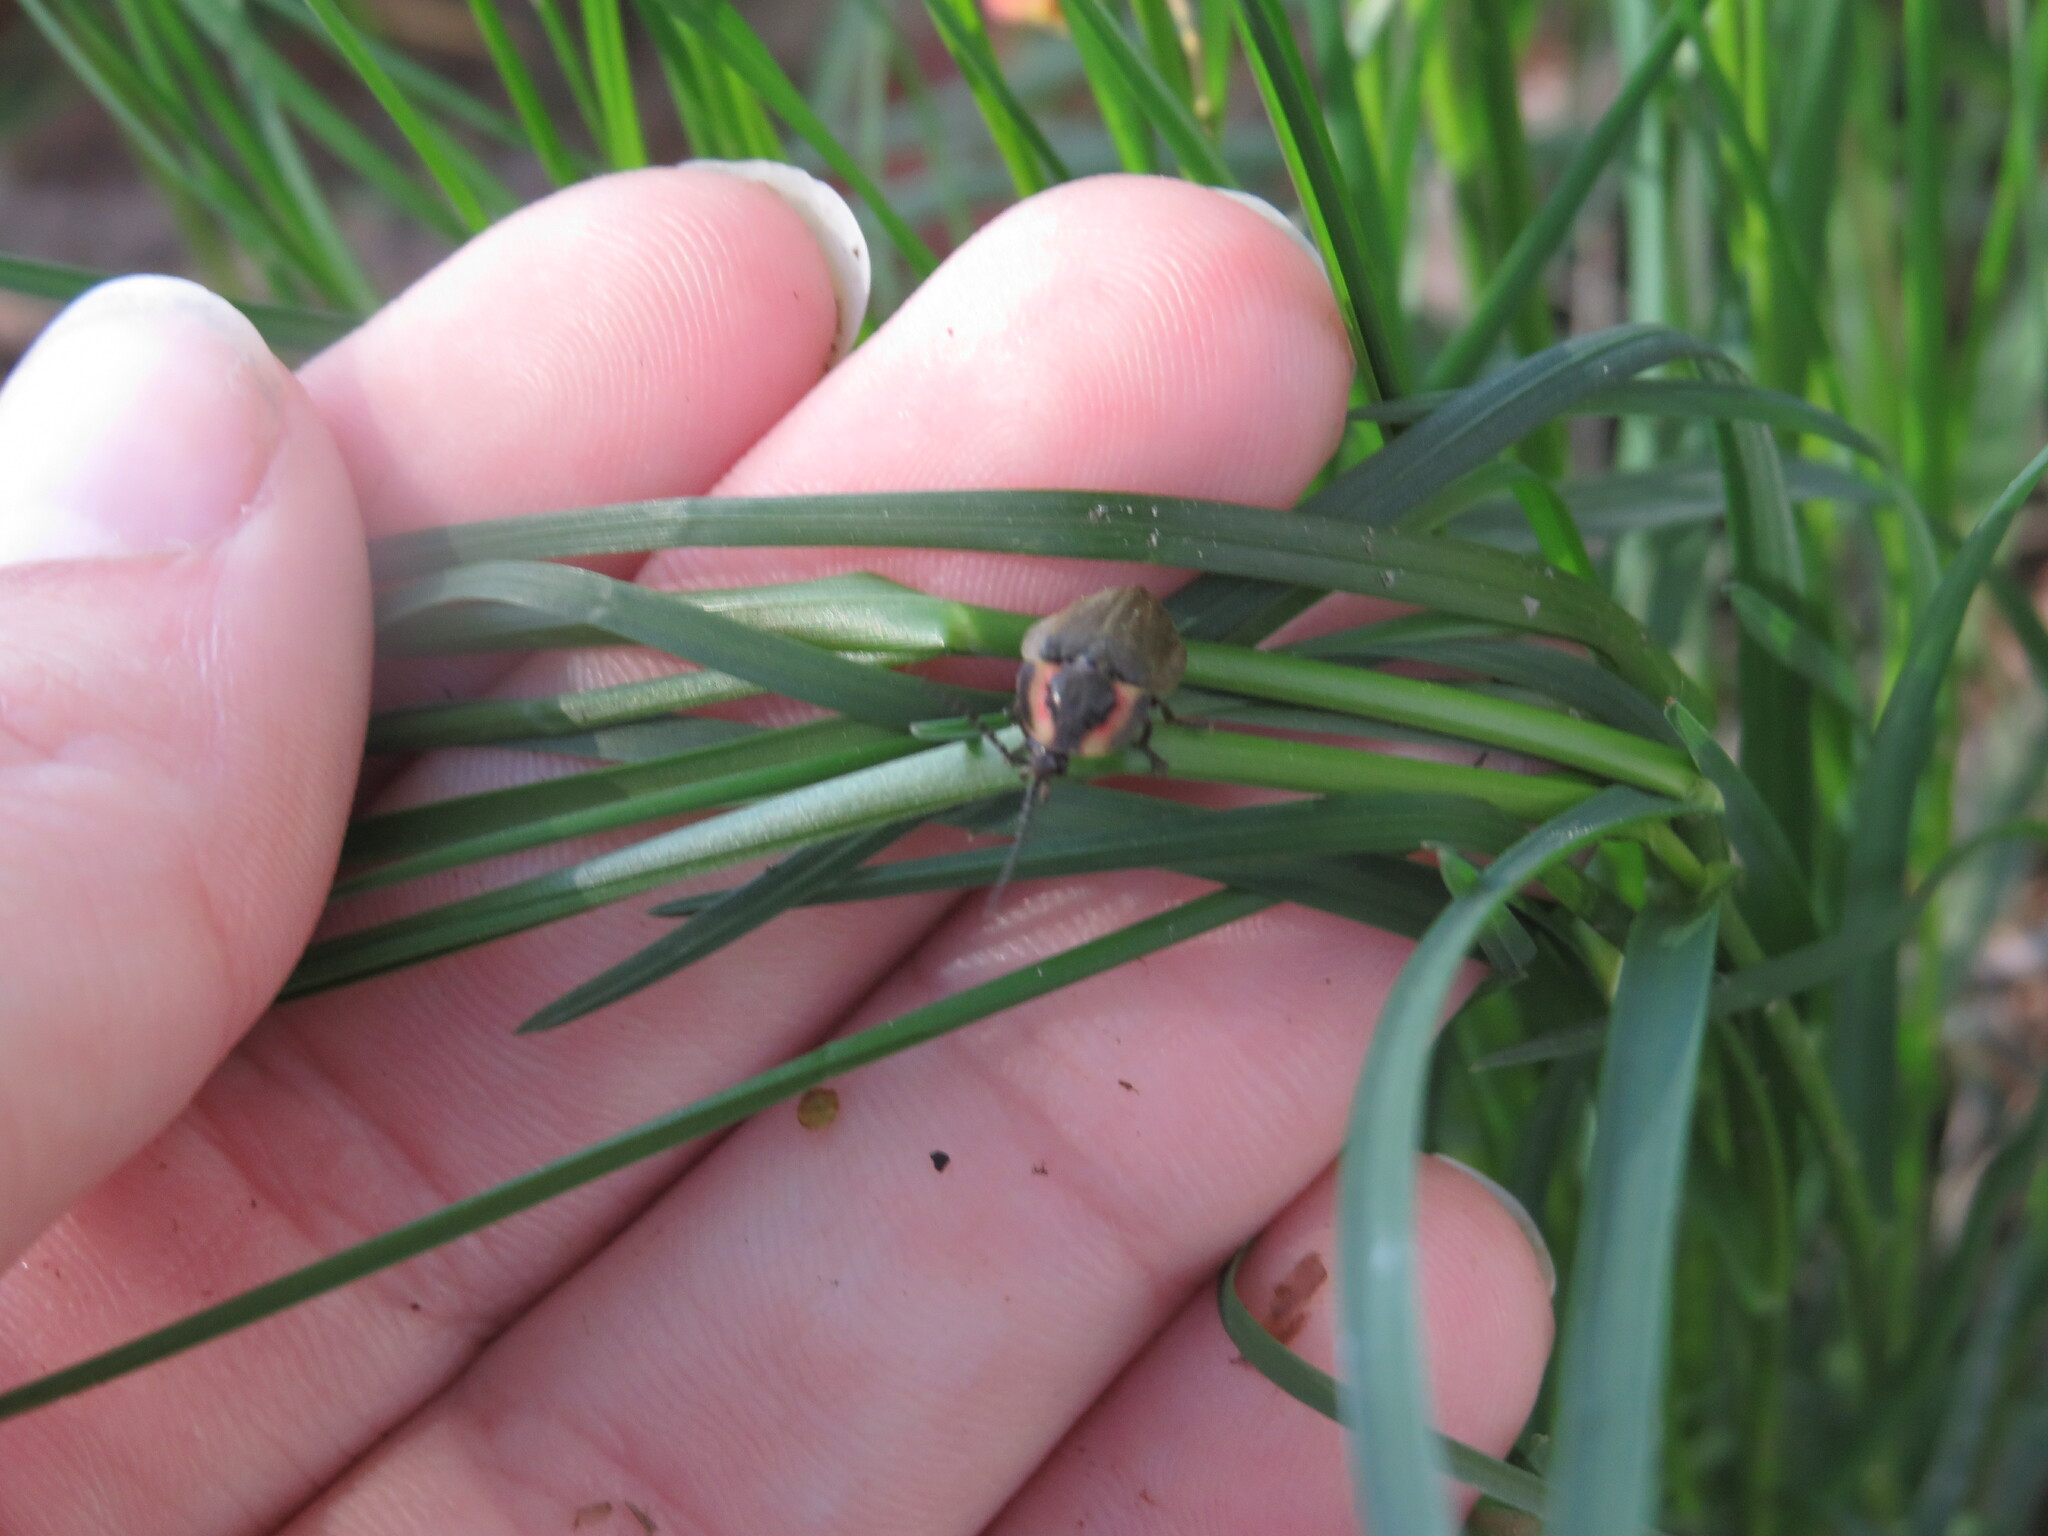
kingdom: Animalia
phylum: Arthropoda
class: Insecta
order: Coleoptera
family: Lampyridae
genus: Photinus
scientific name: Photinus corrusca
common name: Winter firefly
